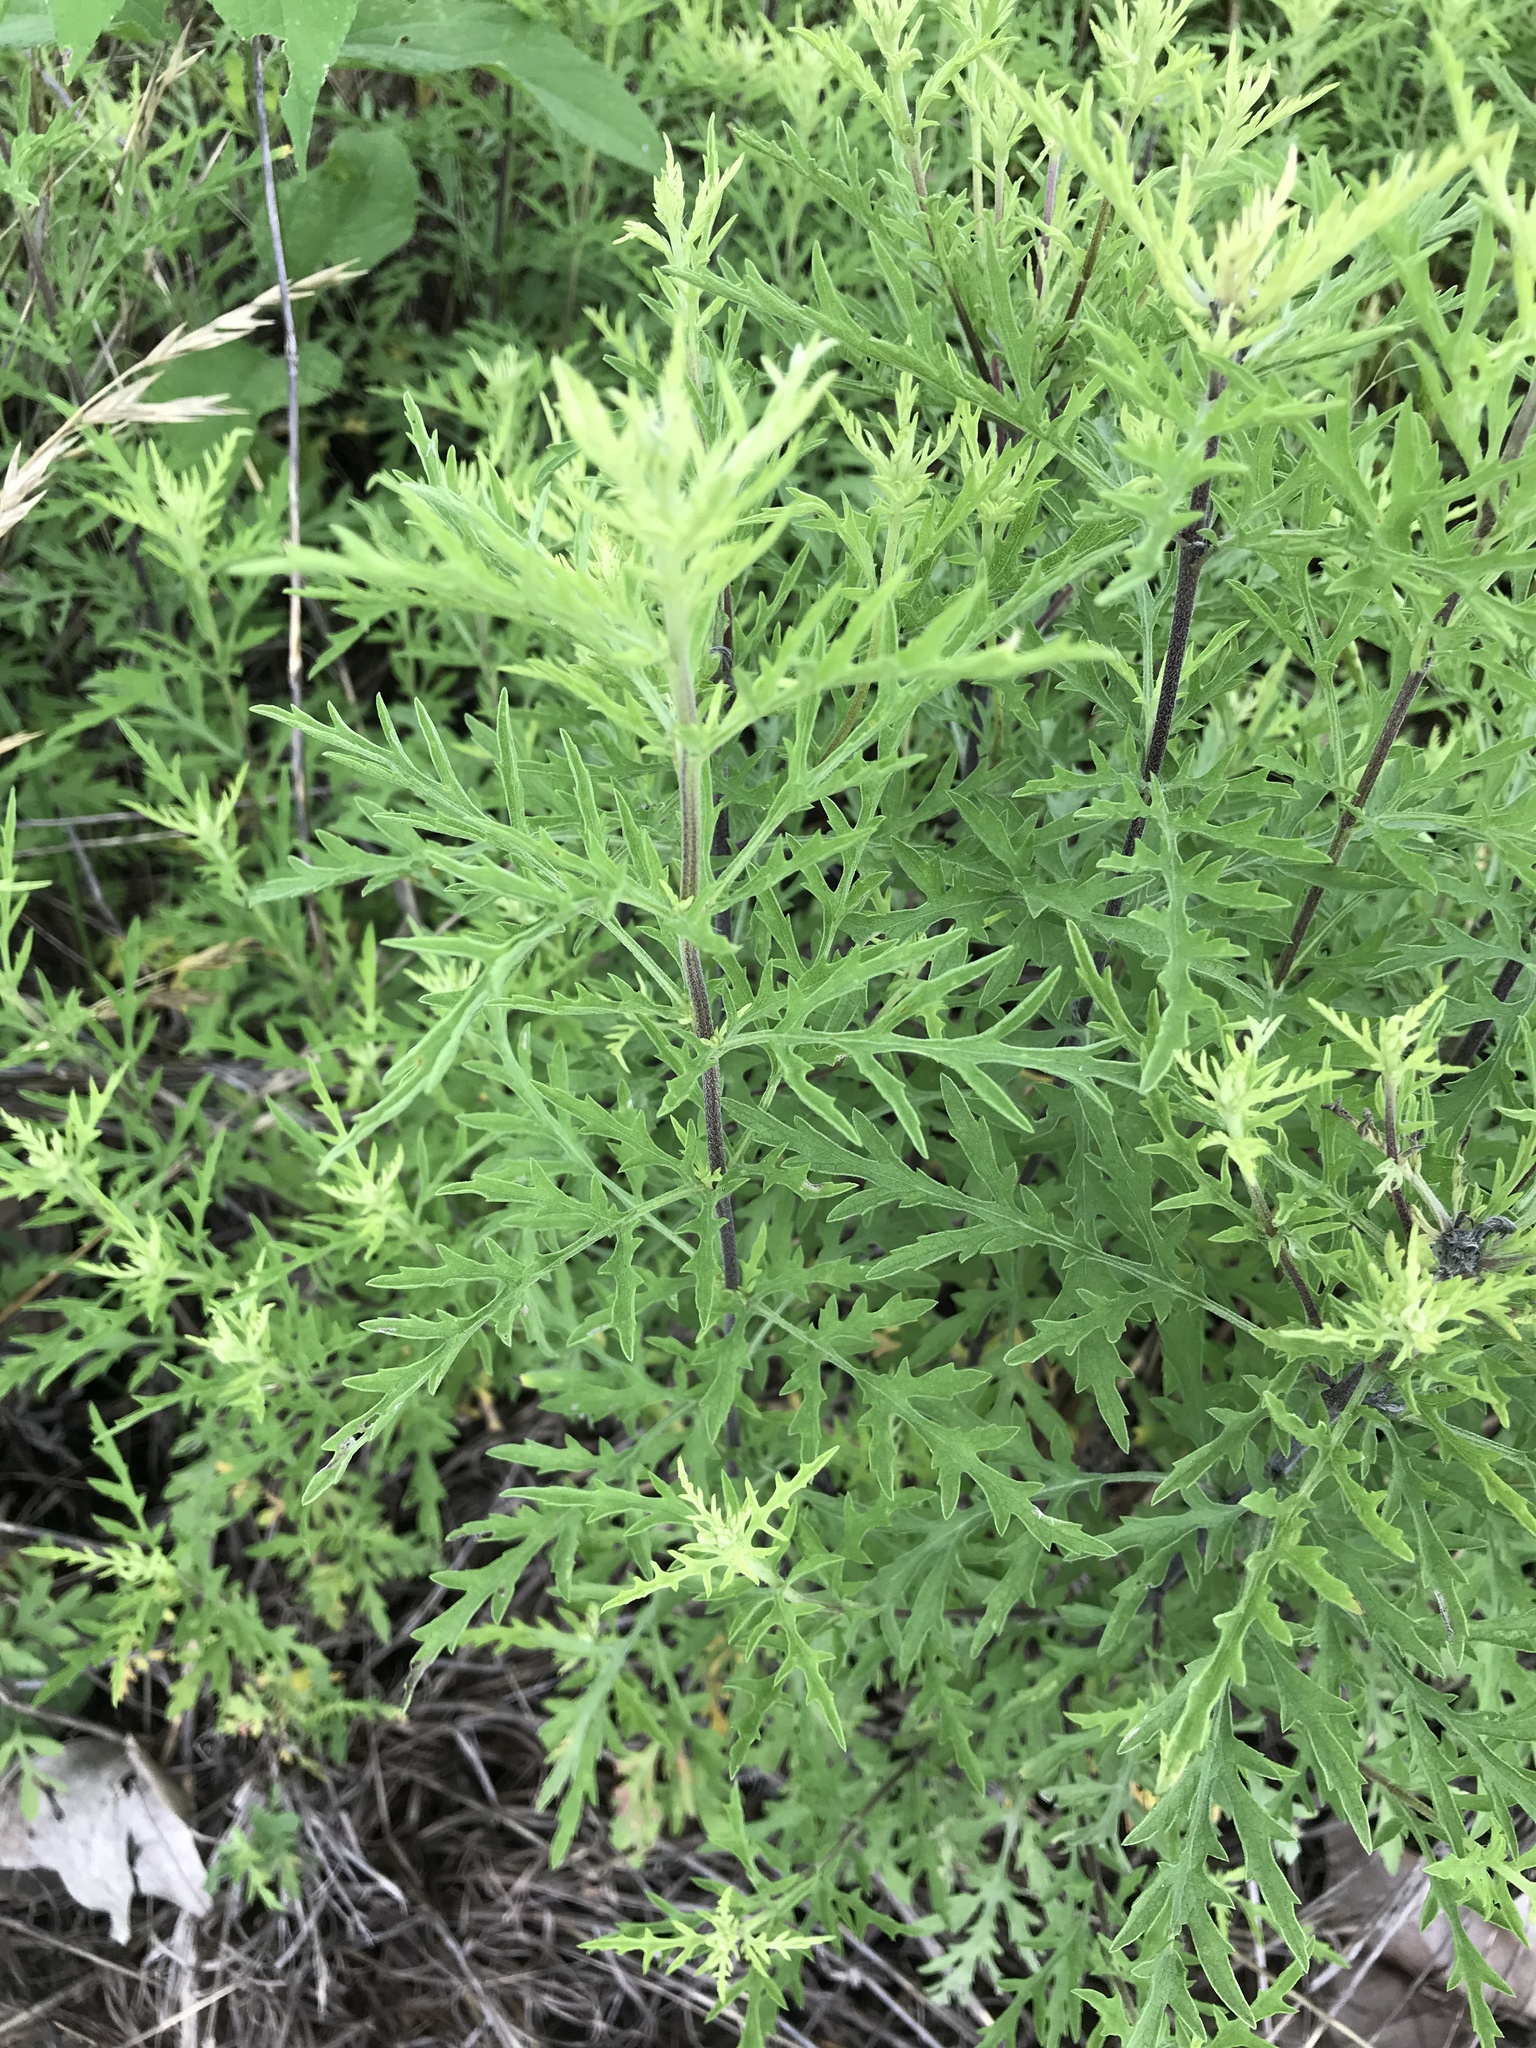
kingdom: Plantae
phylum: Tracheophyta
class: Magnoliopsida
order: Asterales
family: Asteraceae
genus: Ambrosia
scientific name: Ambrosia psilostachya
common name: Perennial ragweed
